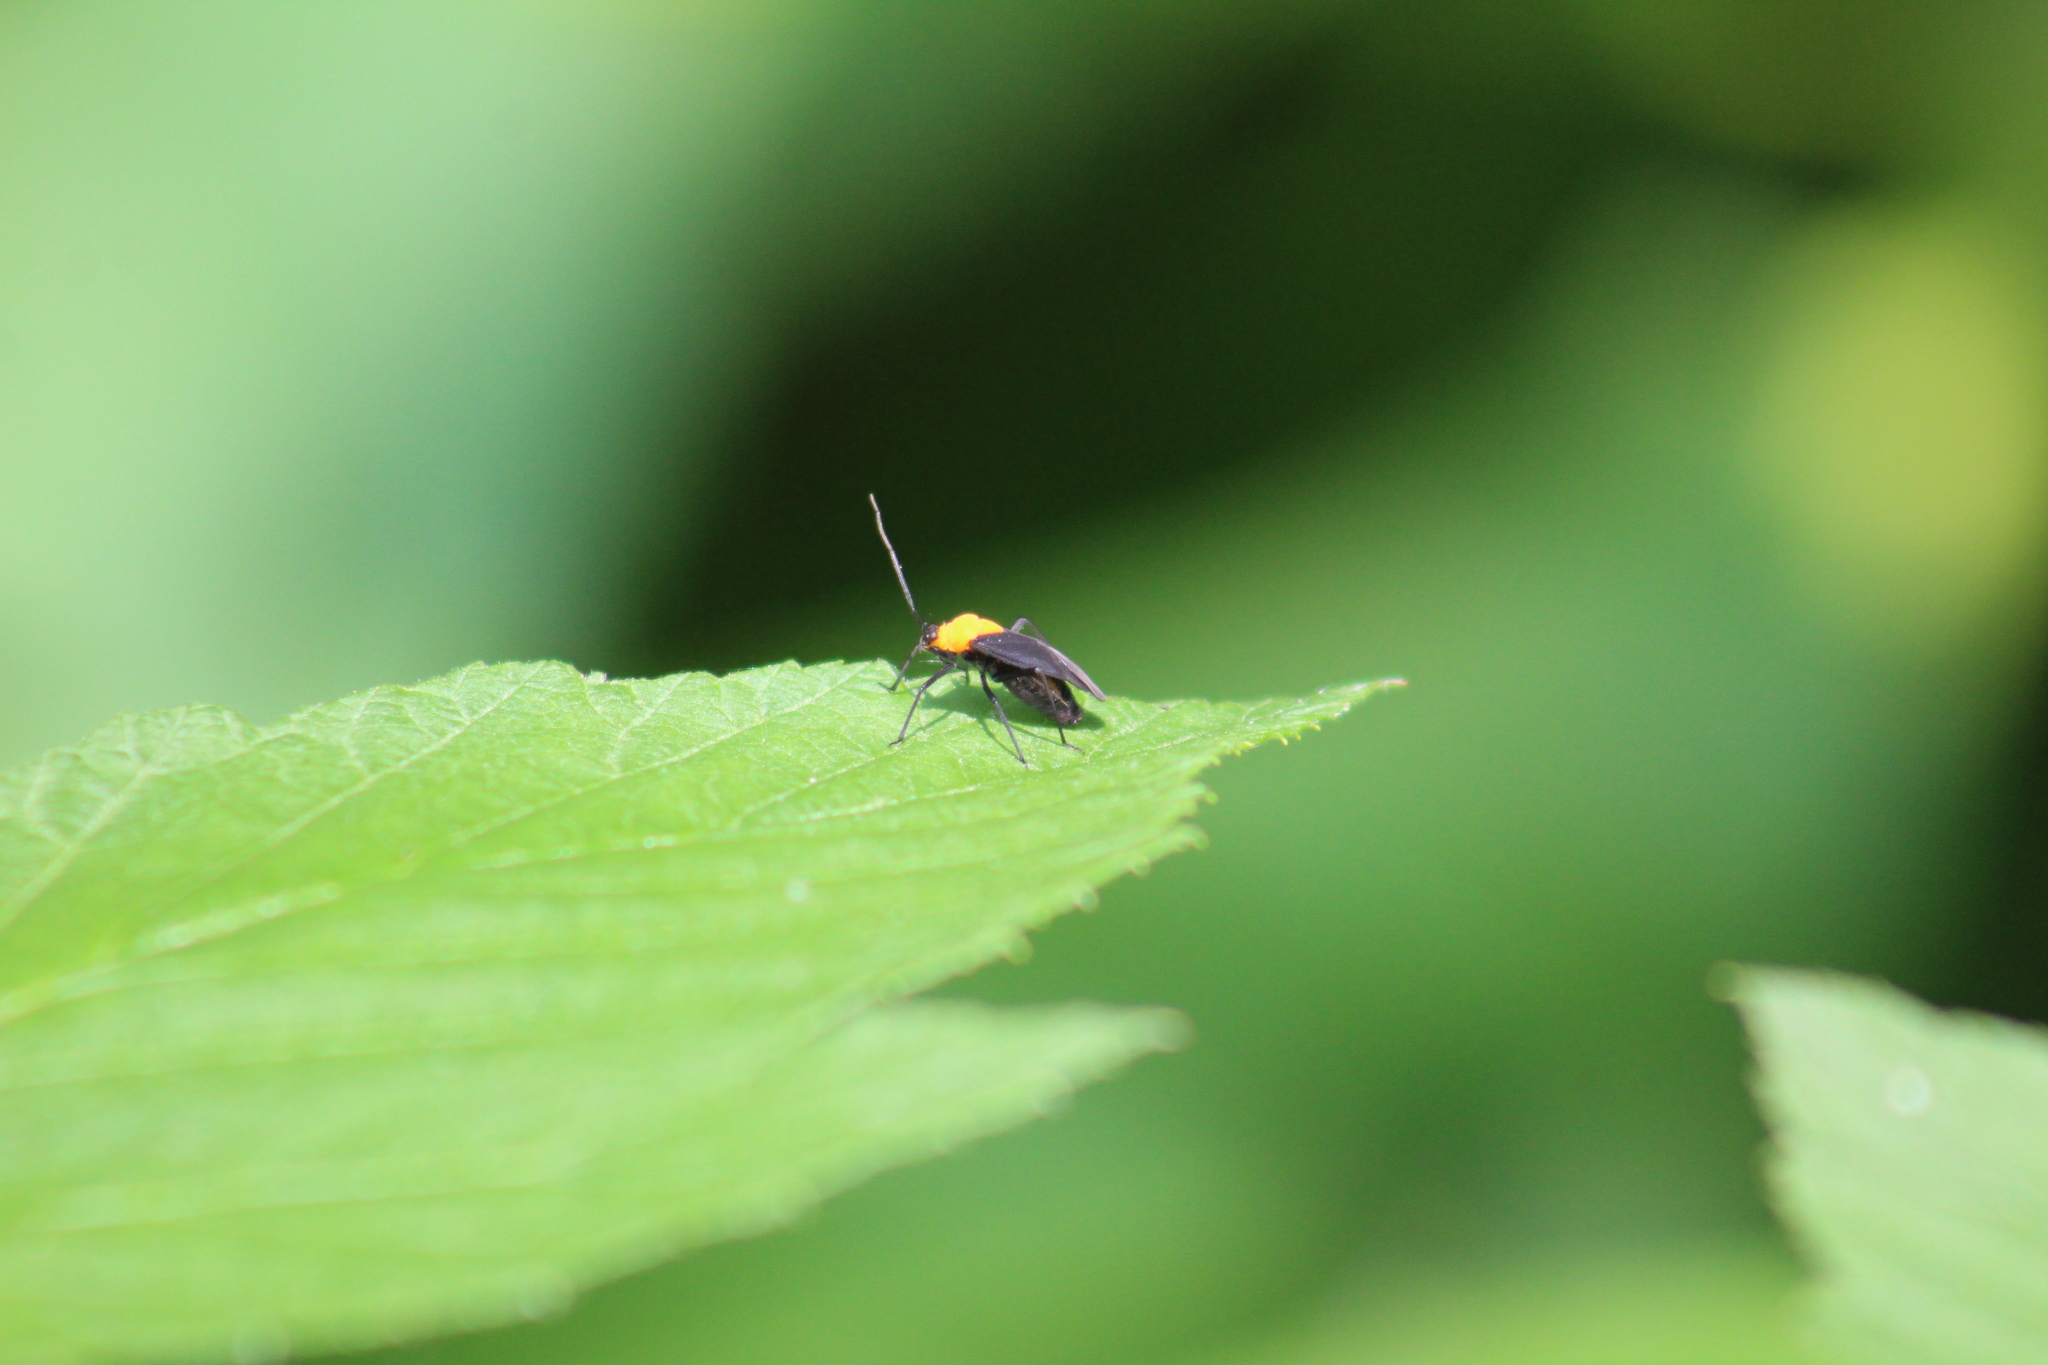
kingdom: Animalia
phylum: Arthropoda
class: Insecta
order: Hemiptera
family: Miridae
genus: Prepops
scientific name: Prepops insitivus
